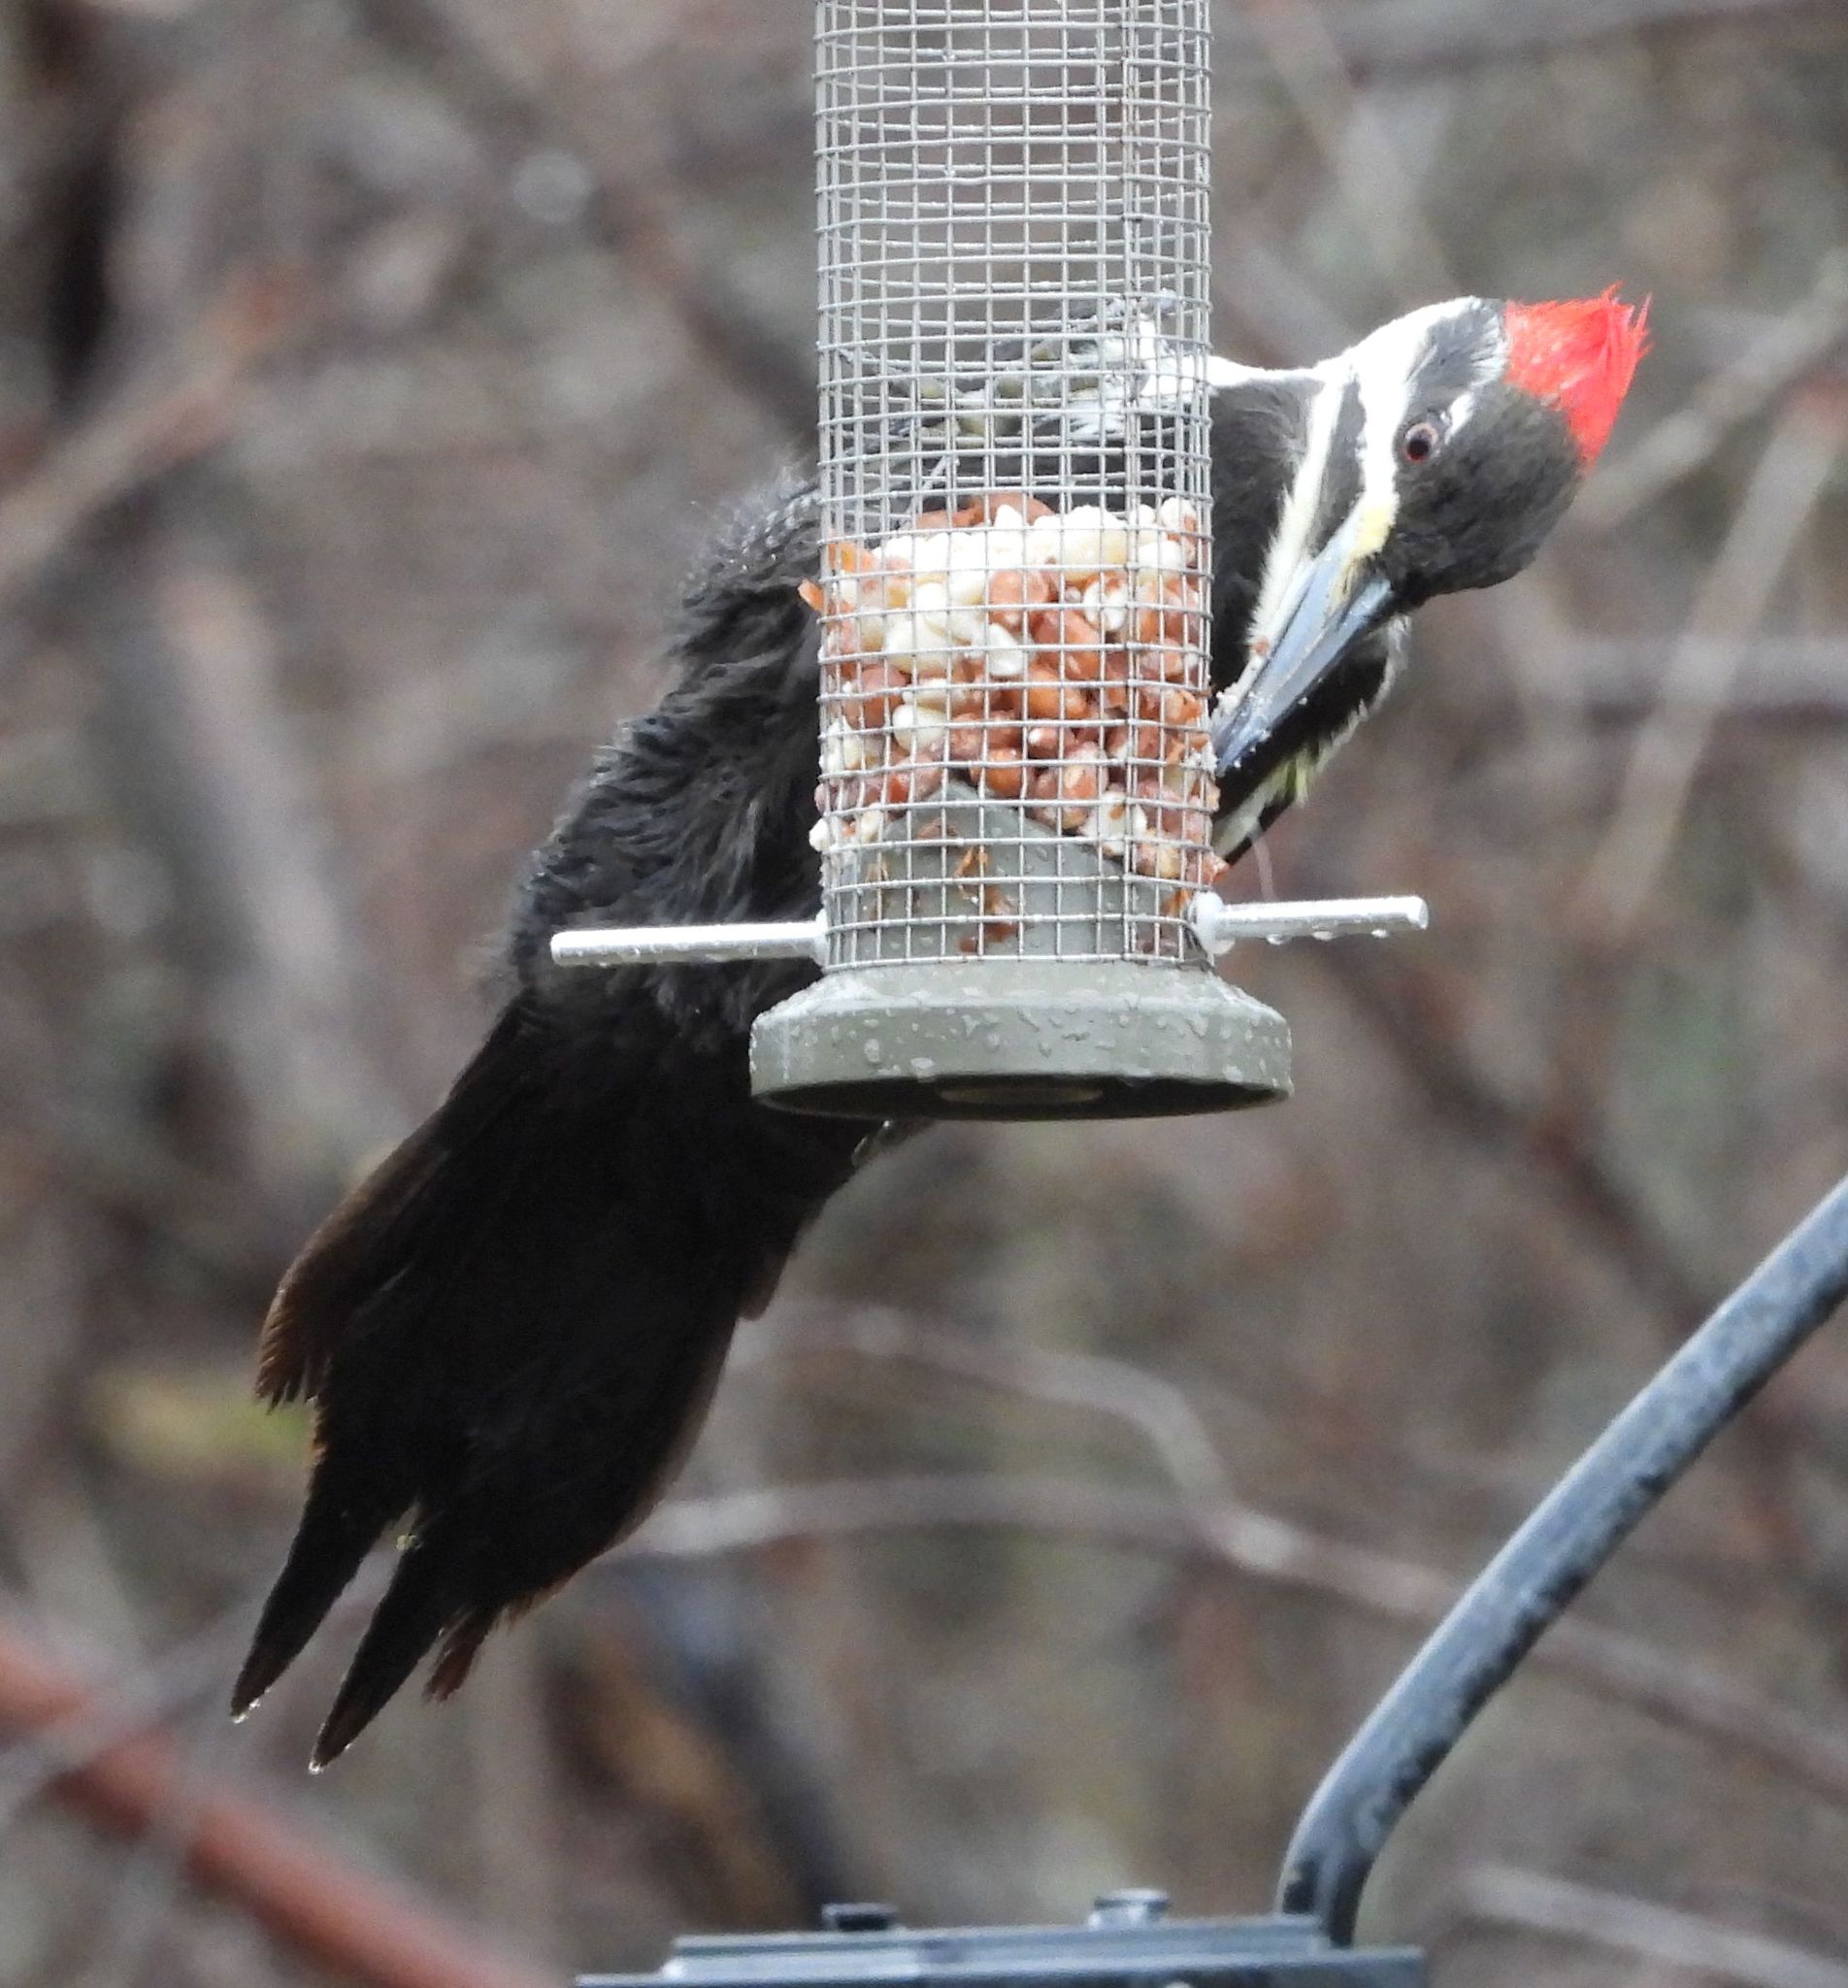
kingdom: Animalia
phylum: Chordata
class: Aves
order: Piciformes
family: Picidae
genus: Dryocopus
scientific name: Dryocopus pileatus
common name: Pileated woodpecker
